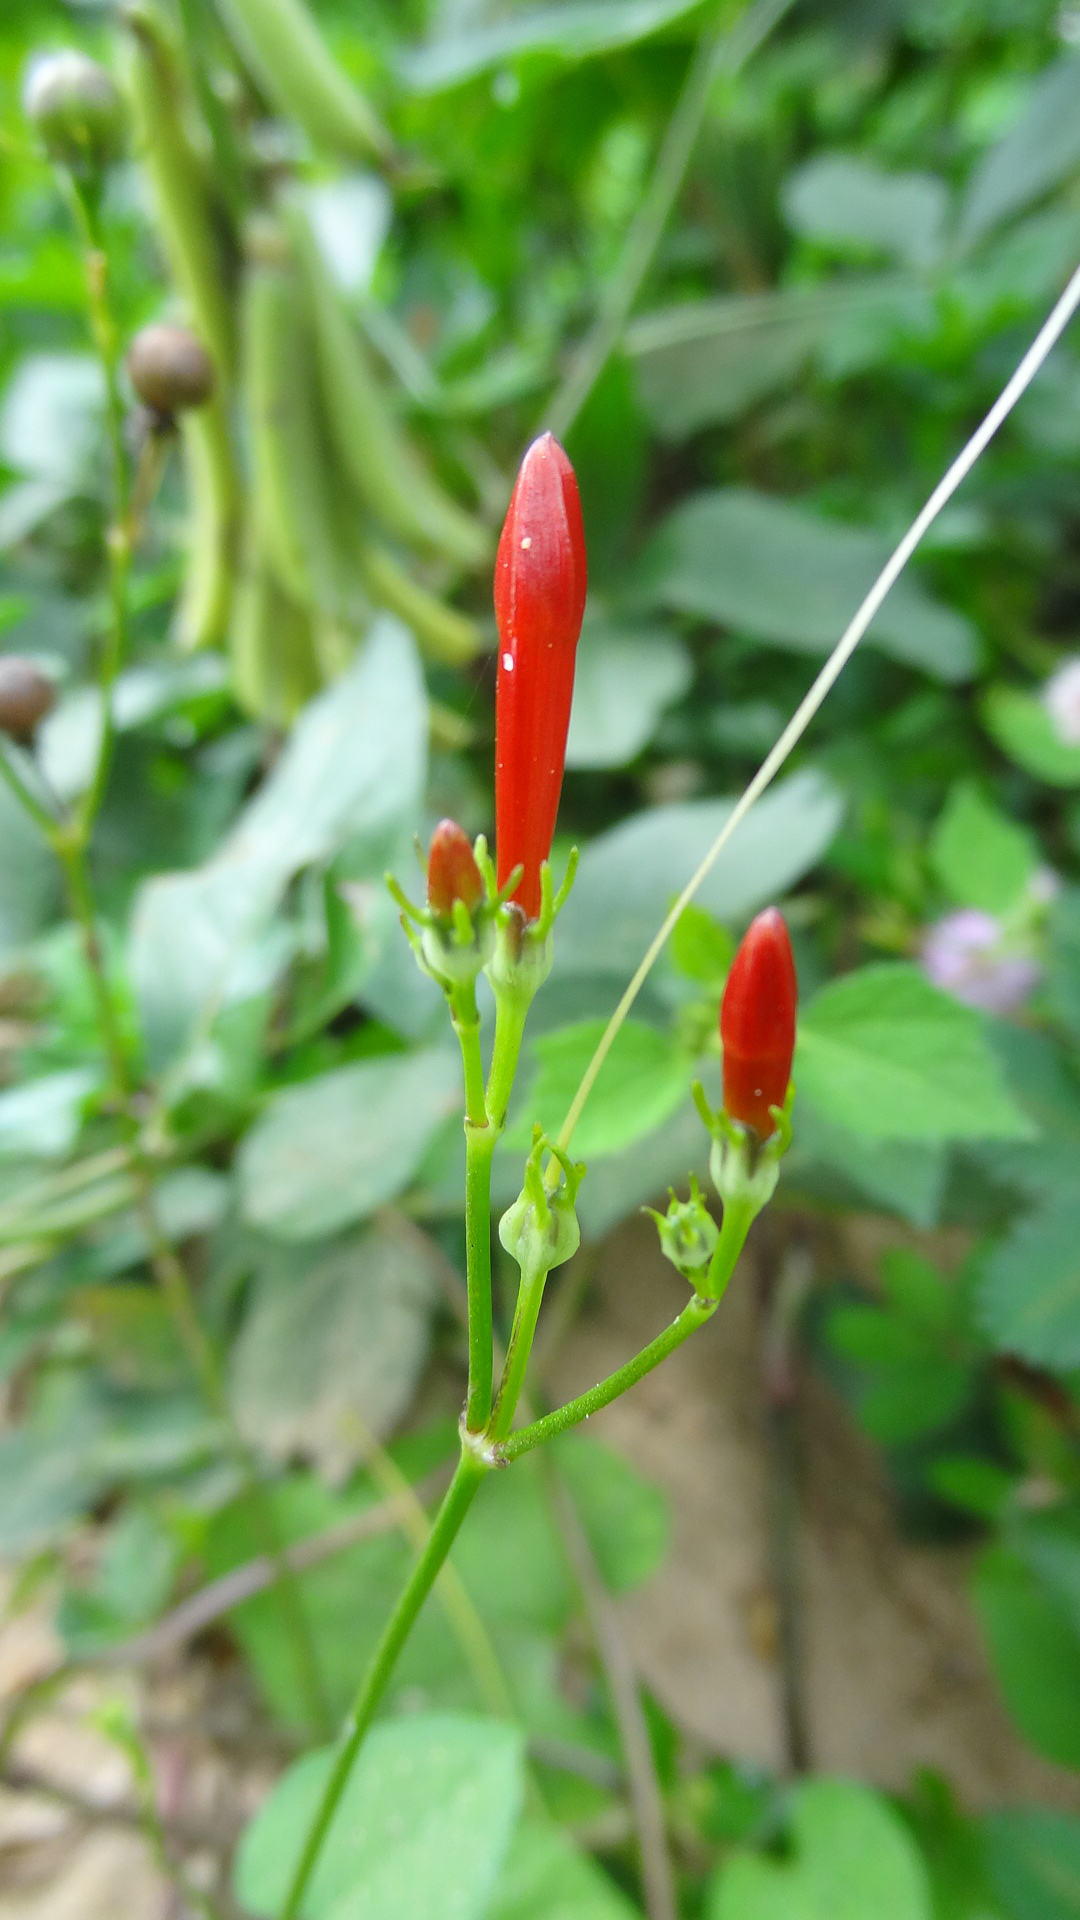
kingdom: Plantae
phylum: Tracheophyta
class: Magnoliopsida
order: Solanales
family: Convolvulaceae
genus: Ipomoea
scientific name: Ipomoea hederifolia
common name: Ivy-leaf morning-glory
